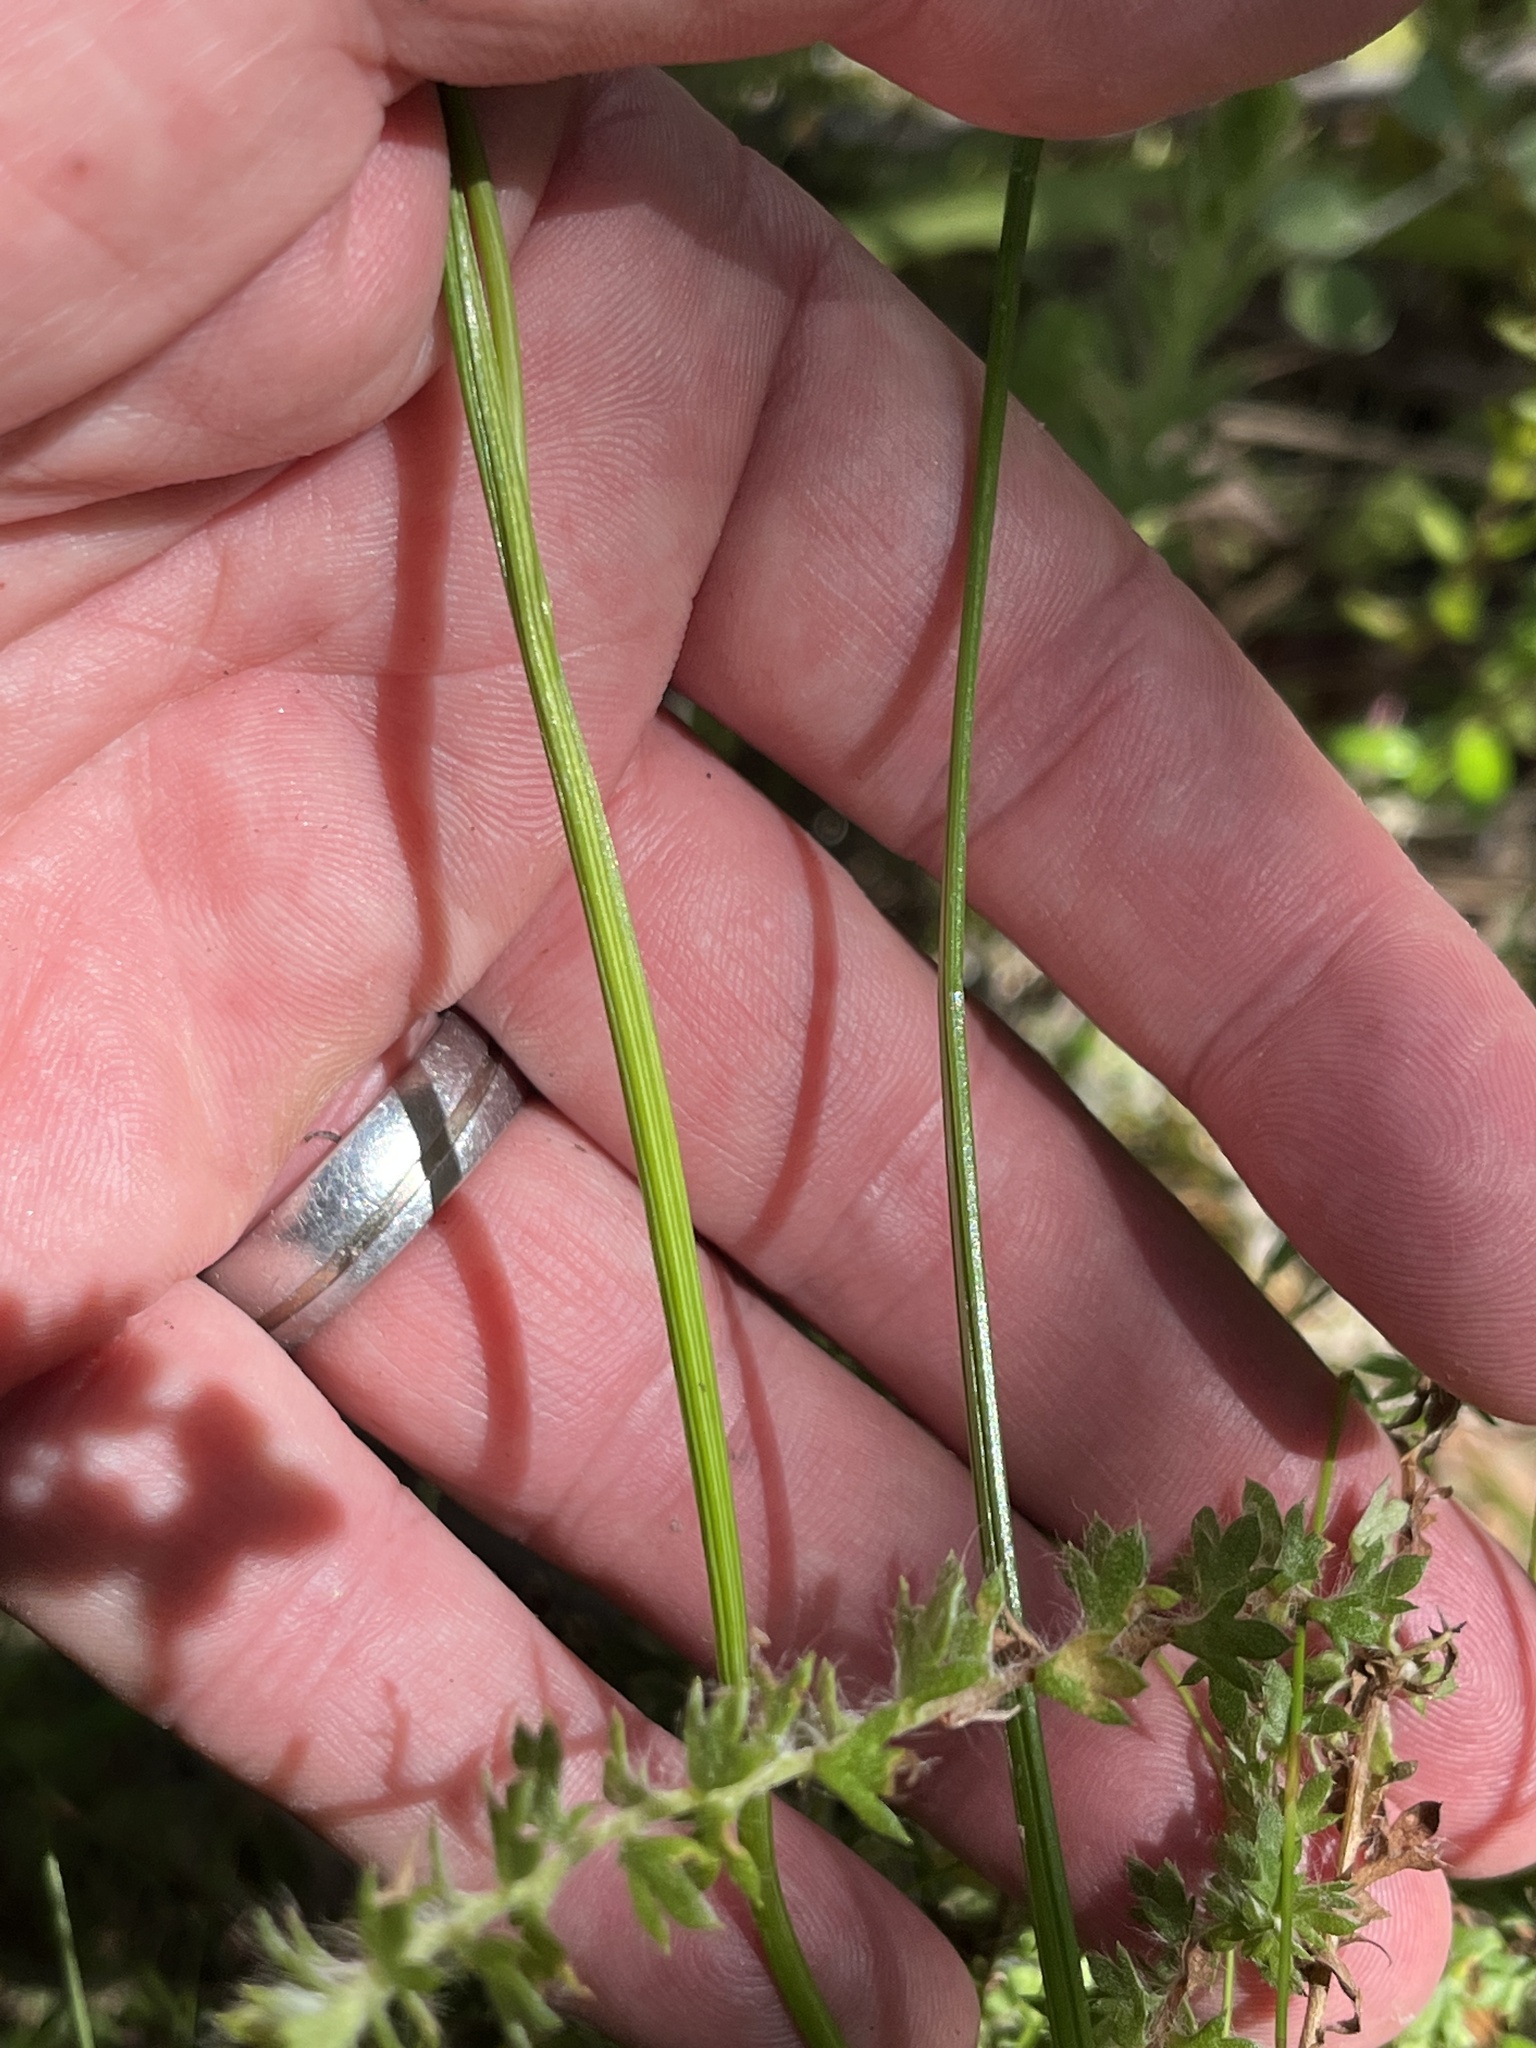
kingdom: Plantae
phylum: Tracheophyta
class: Liliopsida
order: Asparagales
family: Iridaceae
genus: Geissorhiza
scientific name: Geissorhiza burchellii
